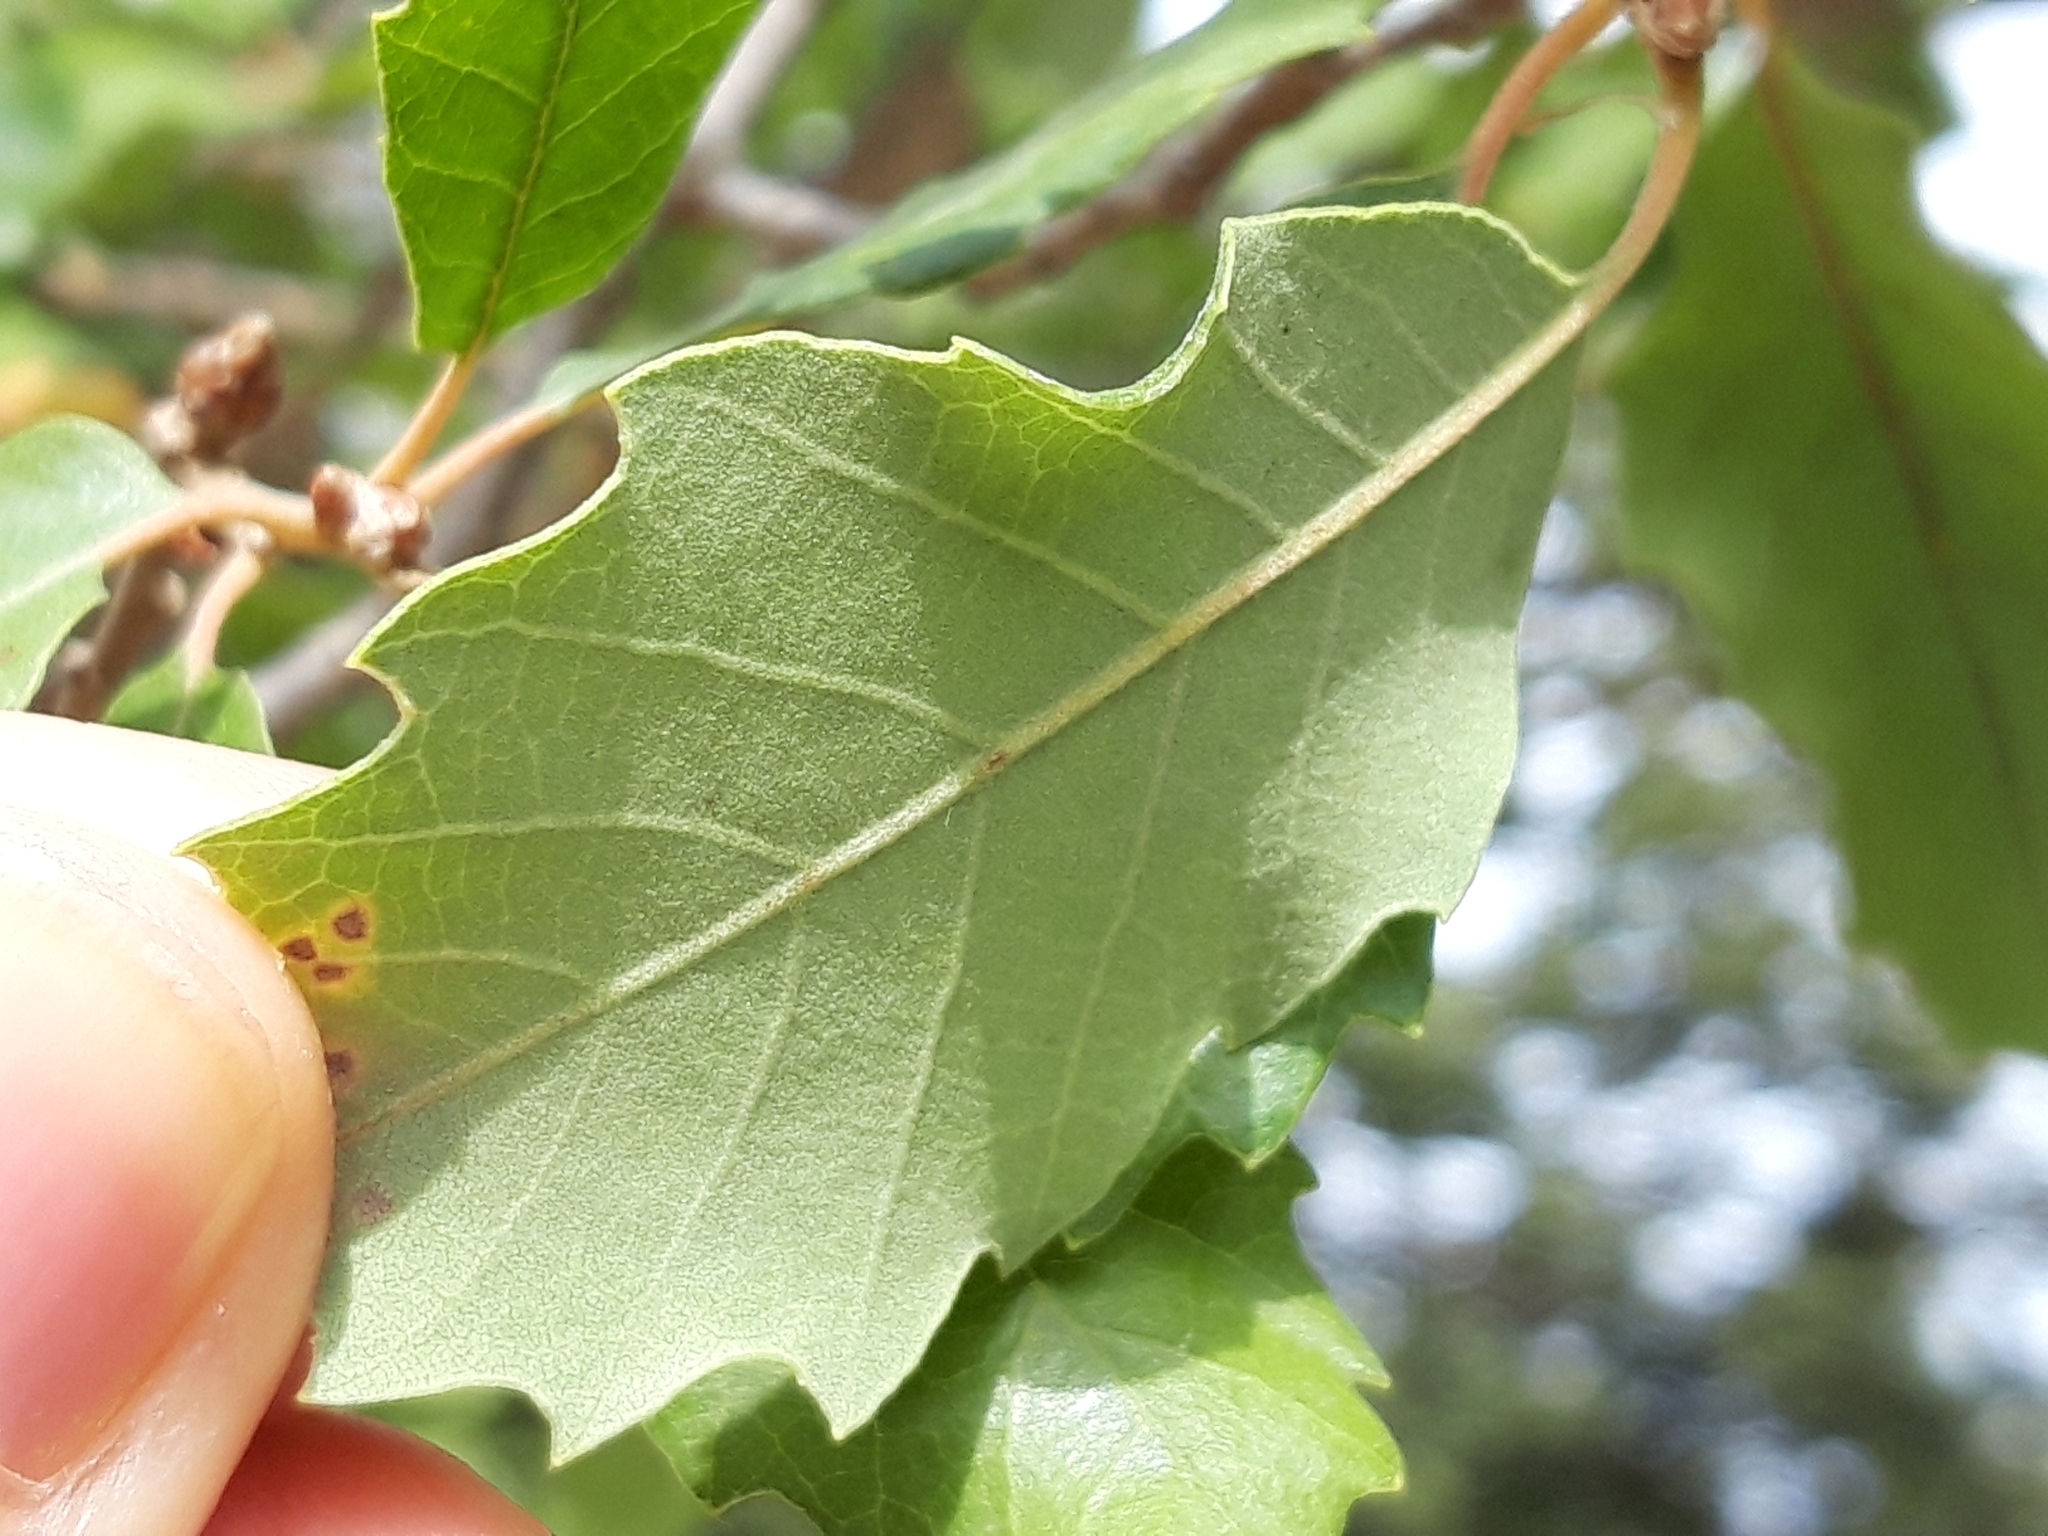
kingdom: Plantae
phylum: Tracheophyta
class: Magnoliopsida
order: Fagales
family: Fagaceae
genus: Quercus
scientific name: Quercus faginea
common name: Gall oak tree
